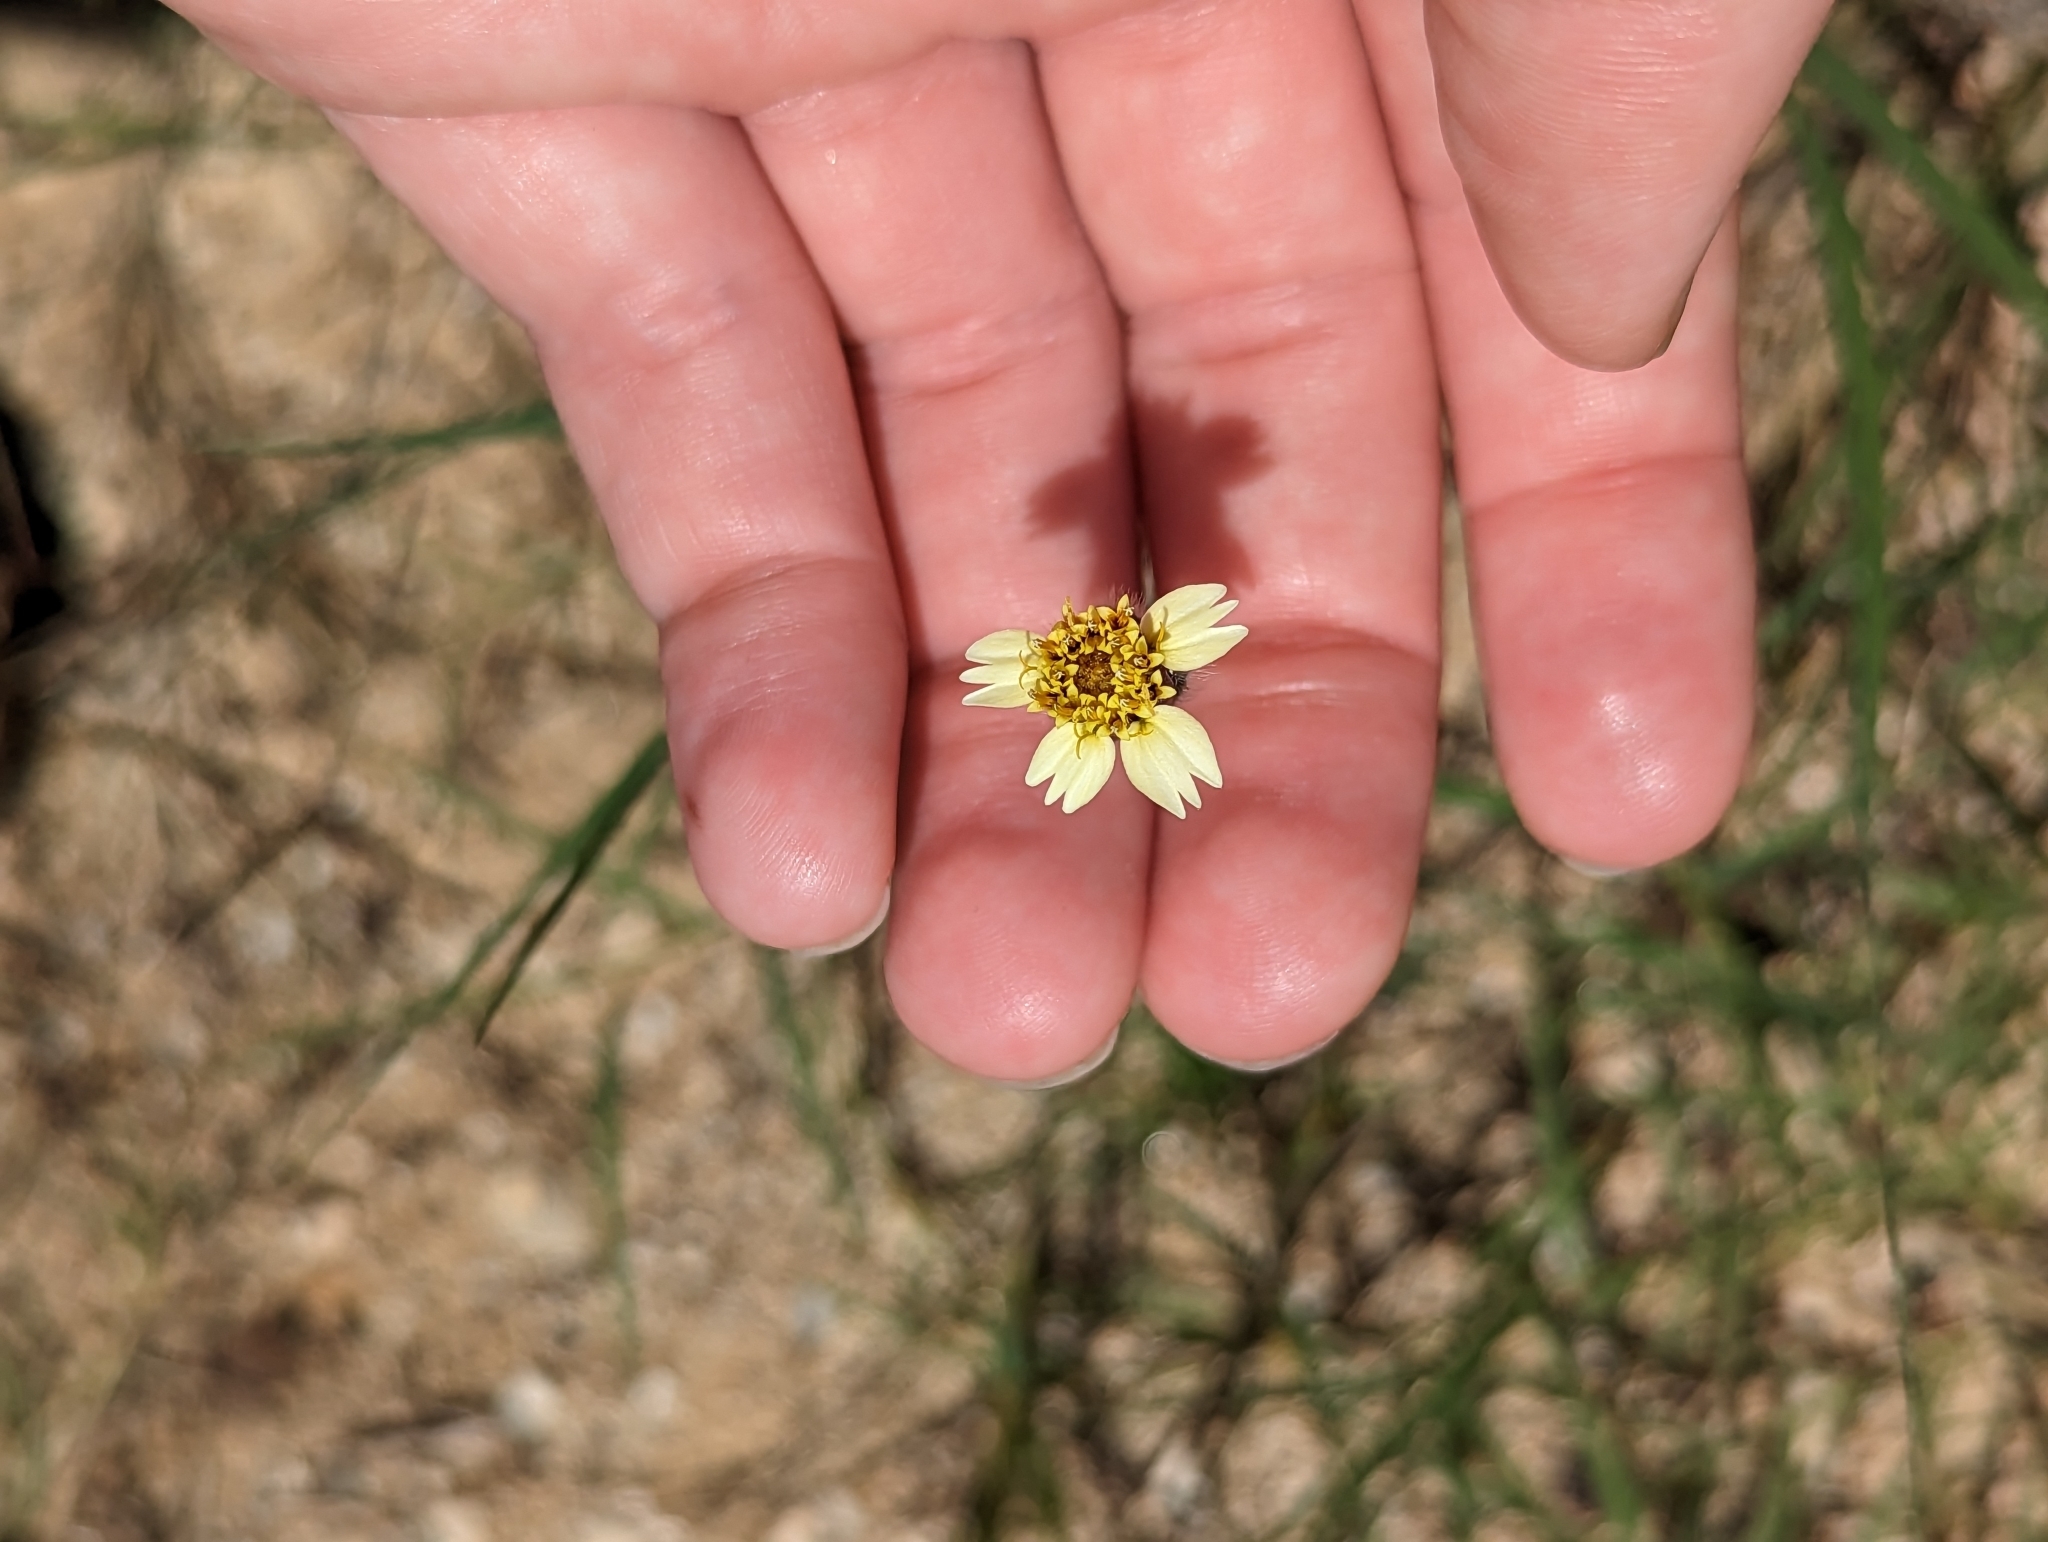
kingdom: Plantae
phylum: Tracheophyta
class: Magnoliopsida
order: Asterales
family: Asteraceae
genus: Tridax
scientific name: Tridax procumbens
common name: Coatbuttons
